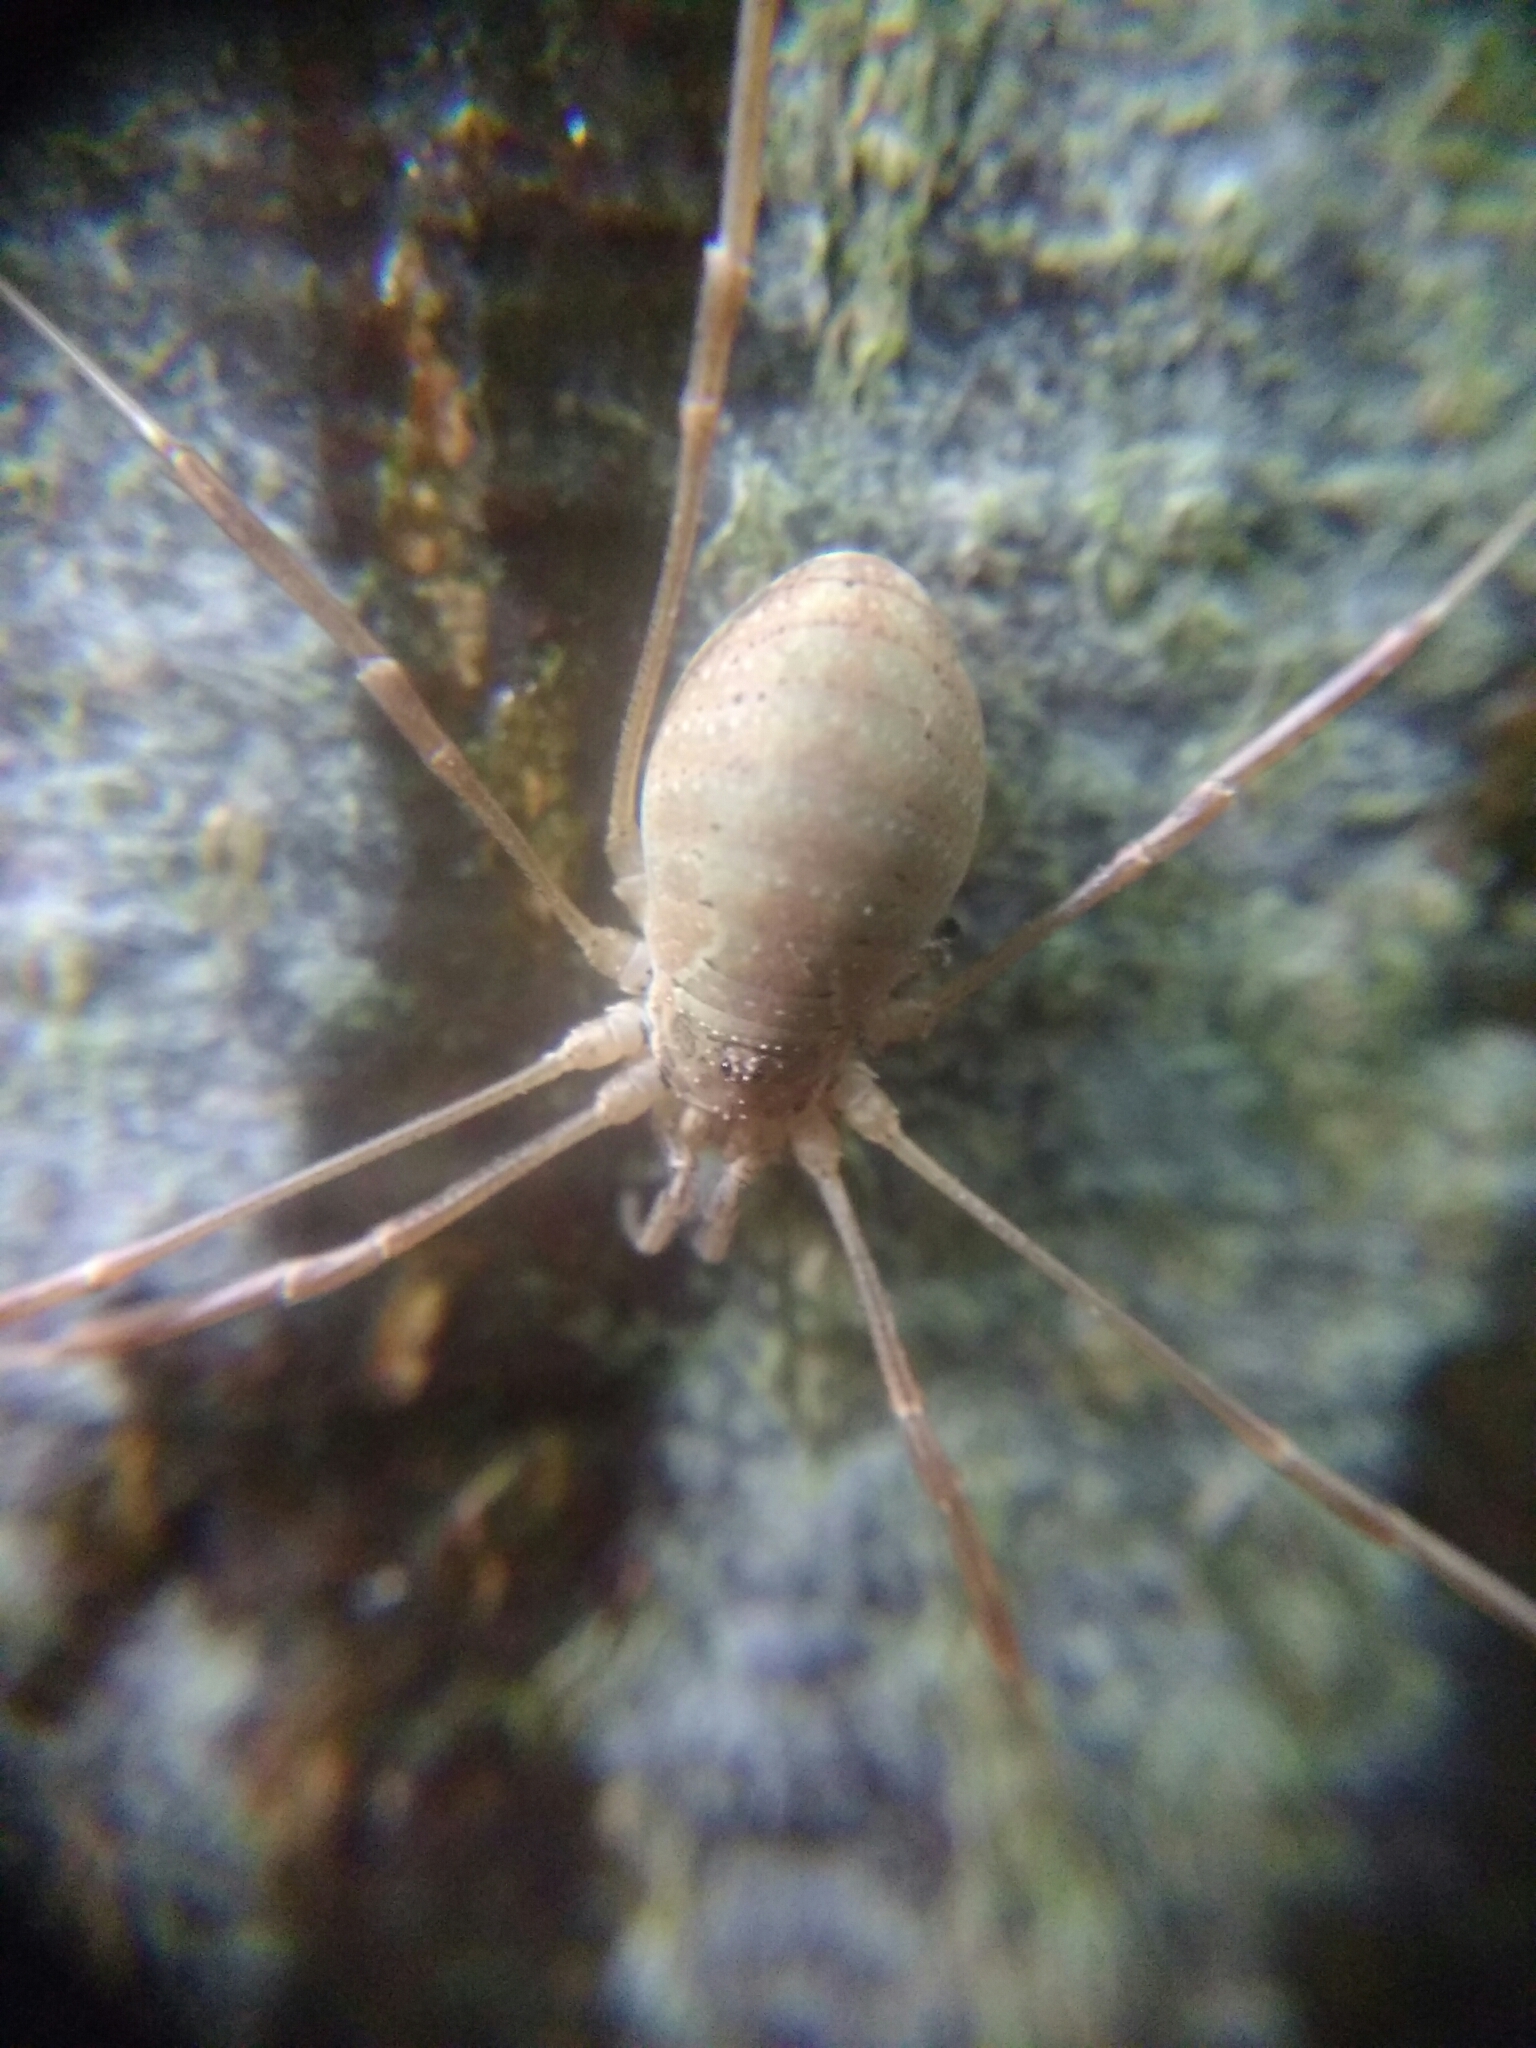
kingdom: Animalia
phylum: Arthropoda
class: Arachnida
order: Opiliones
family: Phalangiidae
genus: Mitopus
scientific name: Mitopus morio
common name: Saddleback harvestman
